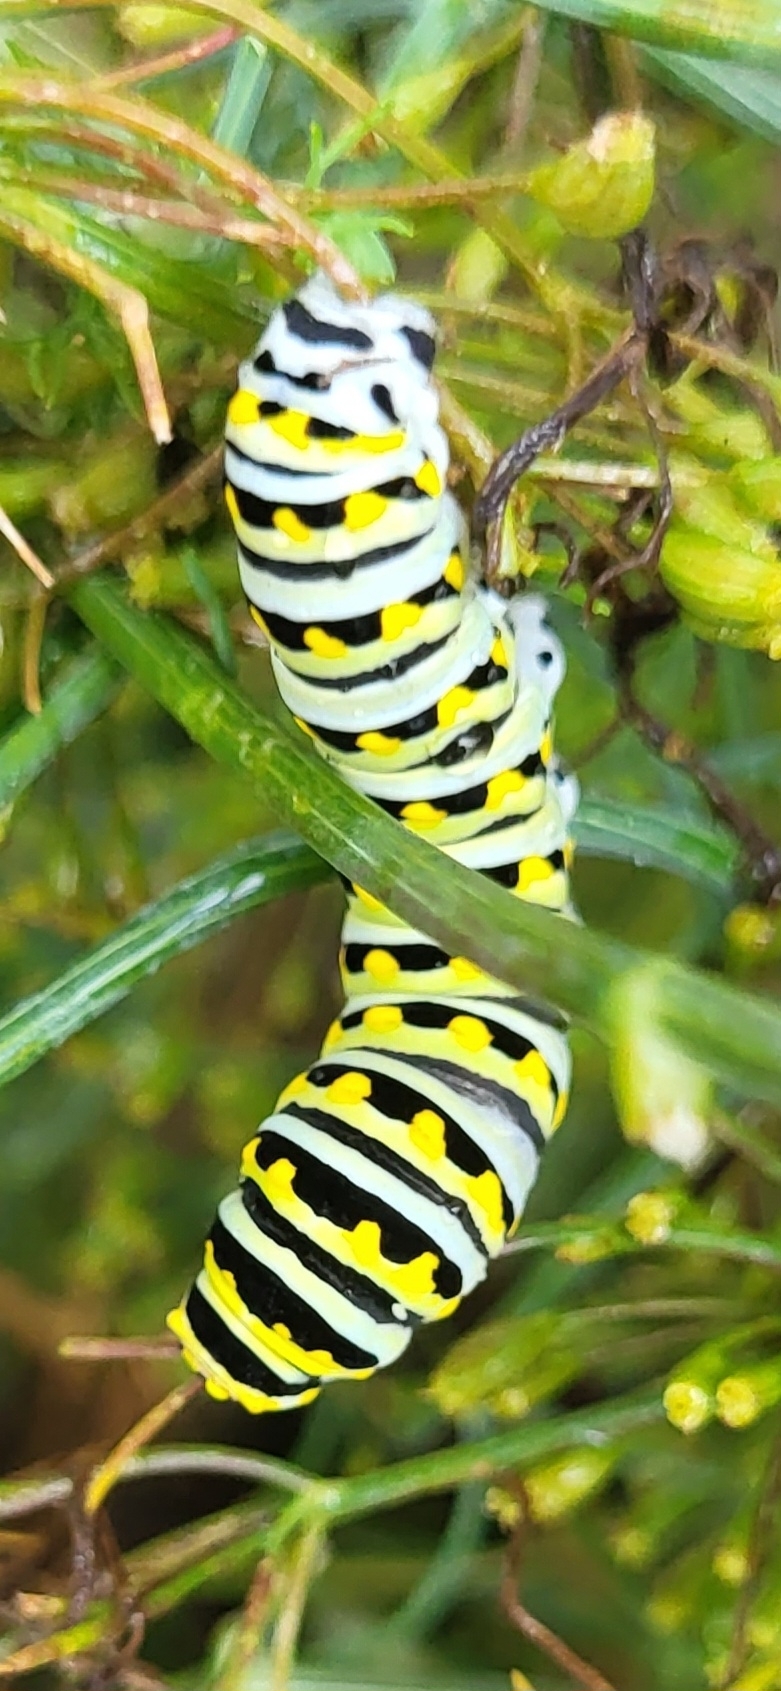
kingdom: Animalia
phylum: Arthropoda
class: Insecta
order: Lepidoptera
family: Papilionidae
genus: Papilio
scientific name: Papilio polyxenes
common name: Black swallowtail
